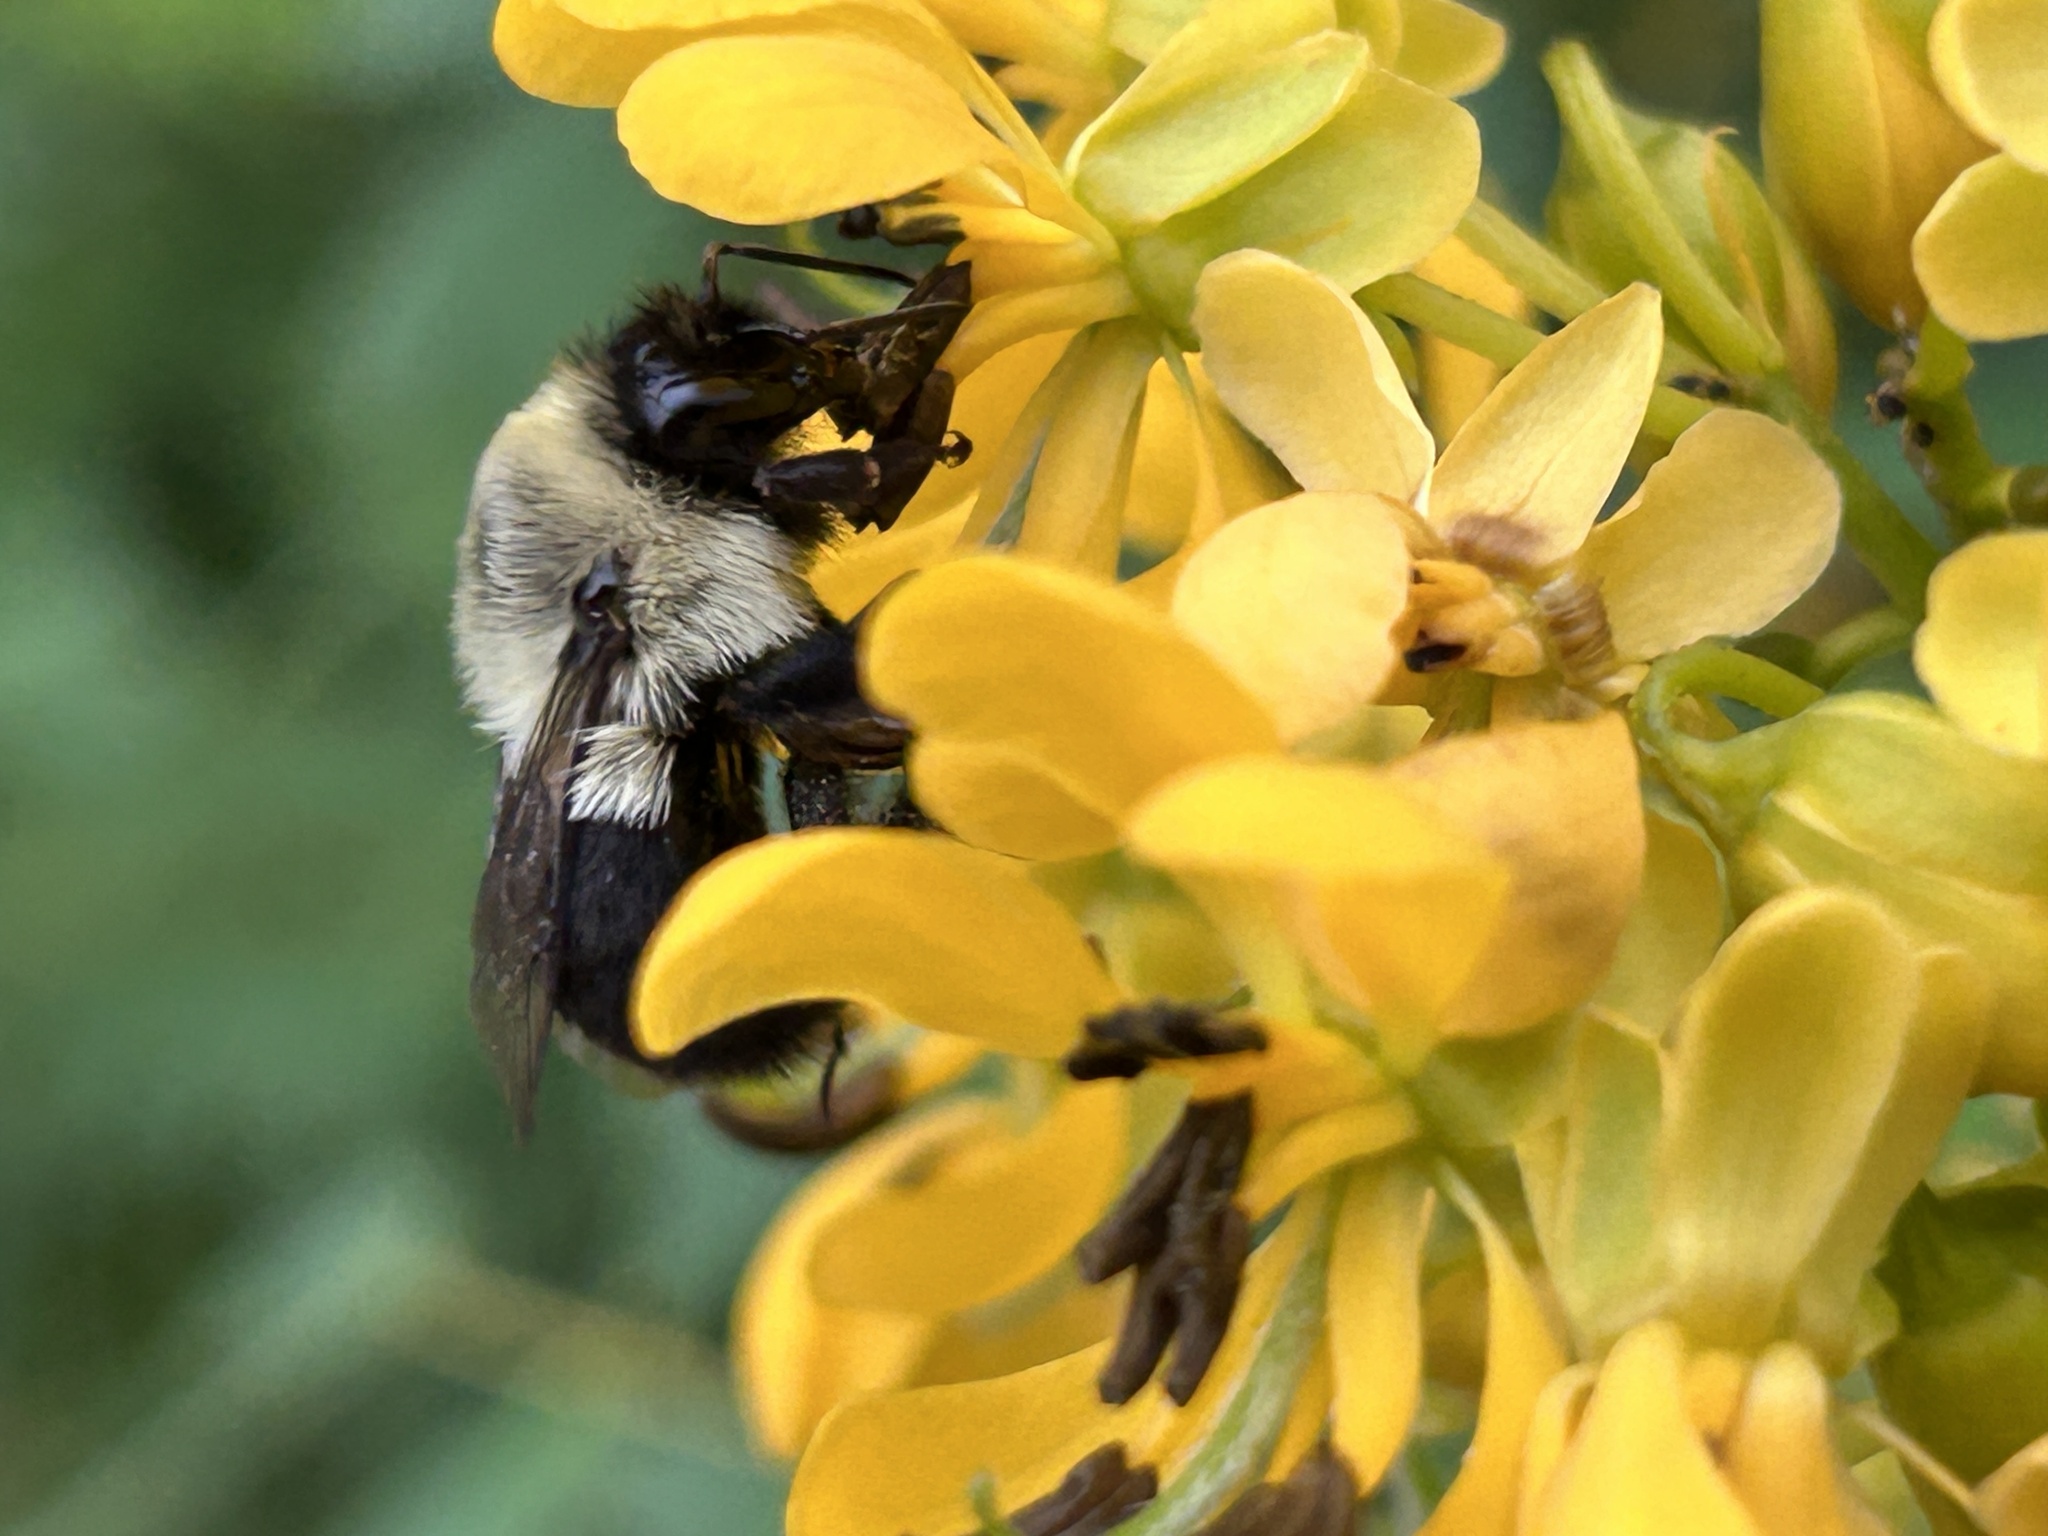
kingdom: Animalia
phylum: Arthropoda
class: Insecta
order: Hymenoptera
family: Apidae
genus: Bombus
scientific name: Bombus impatiens
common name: Common eastern bumble bee
